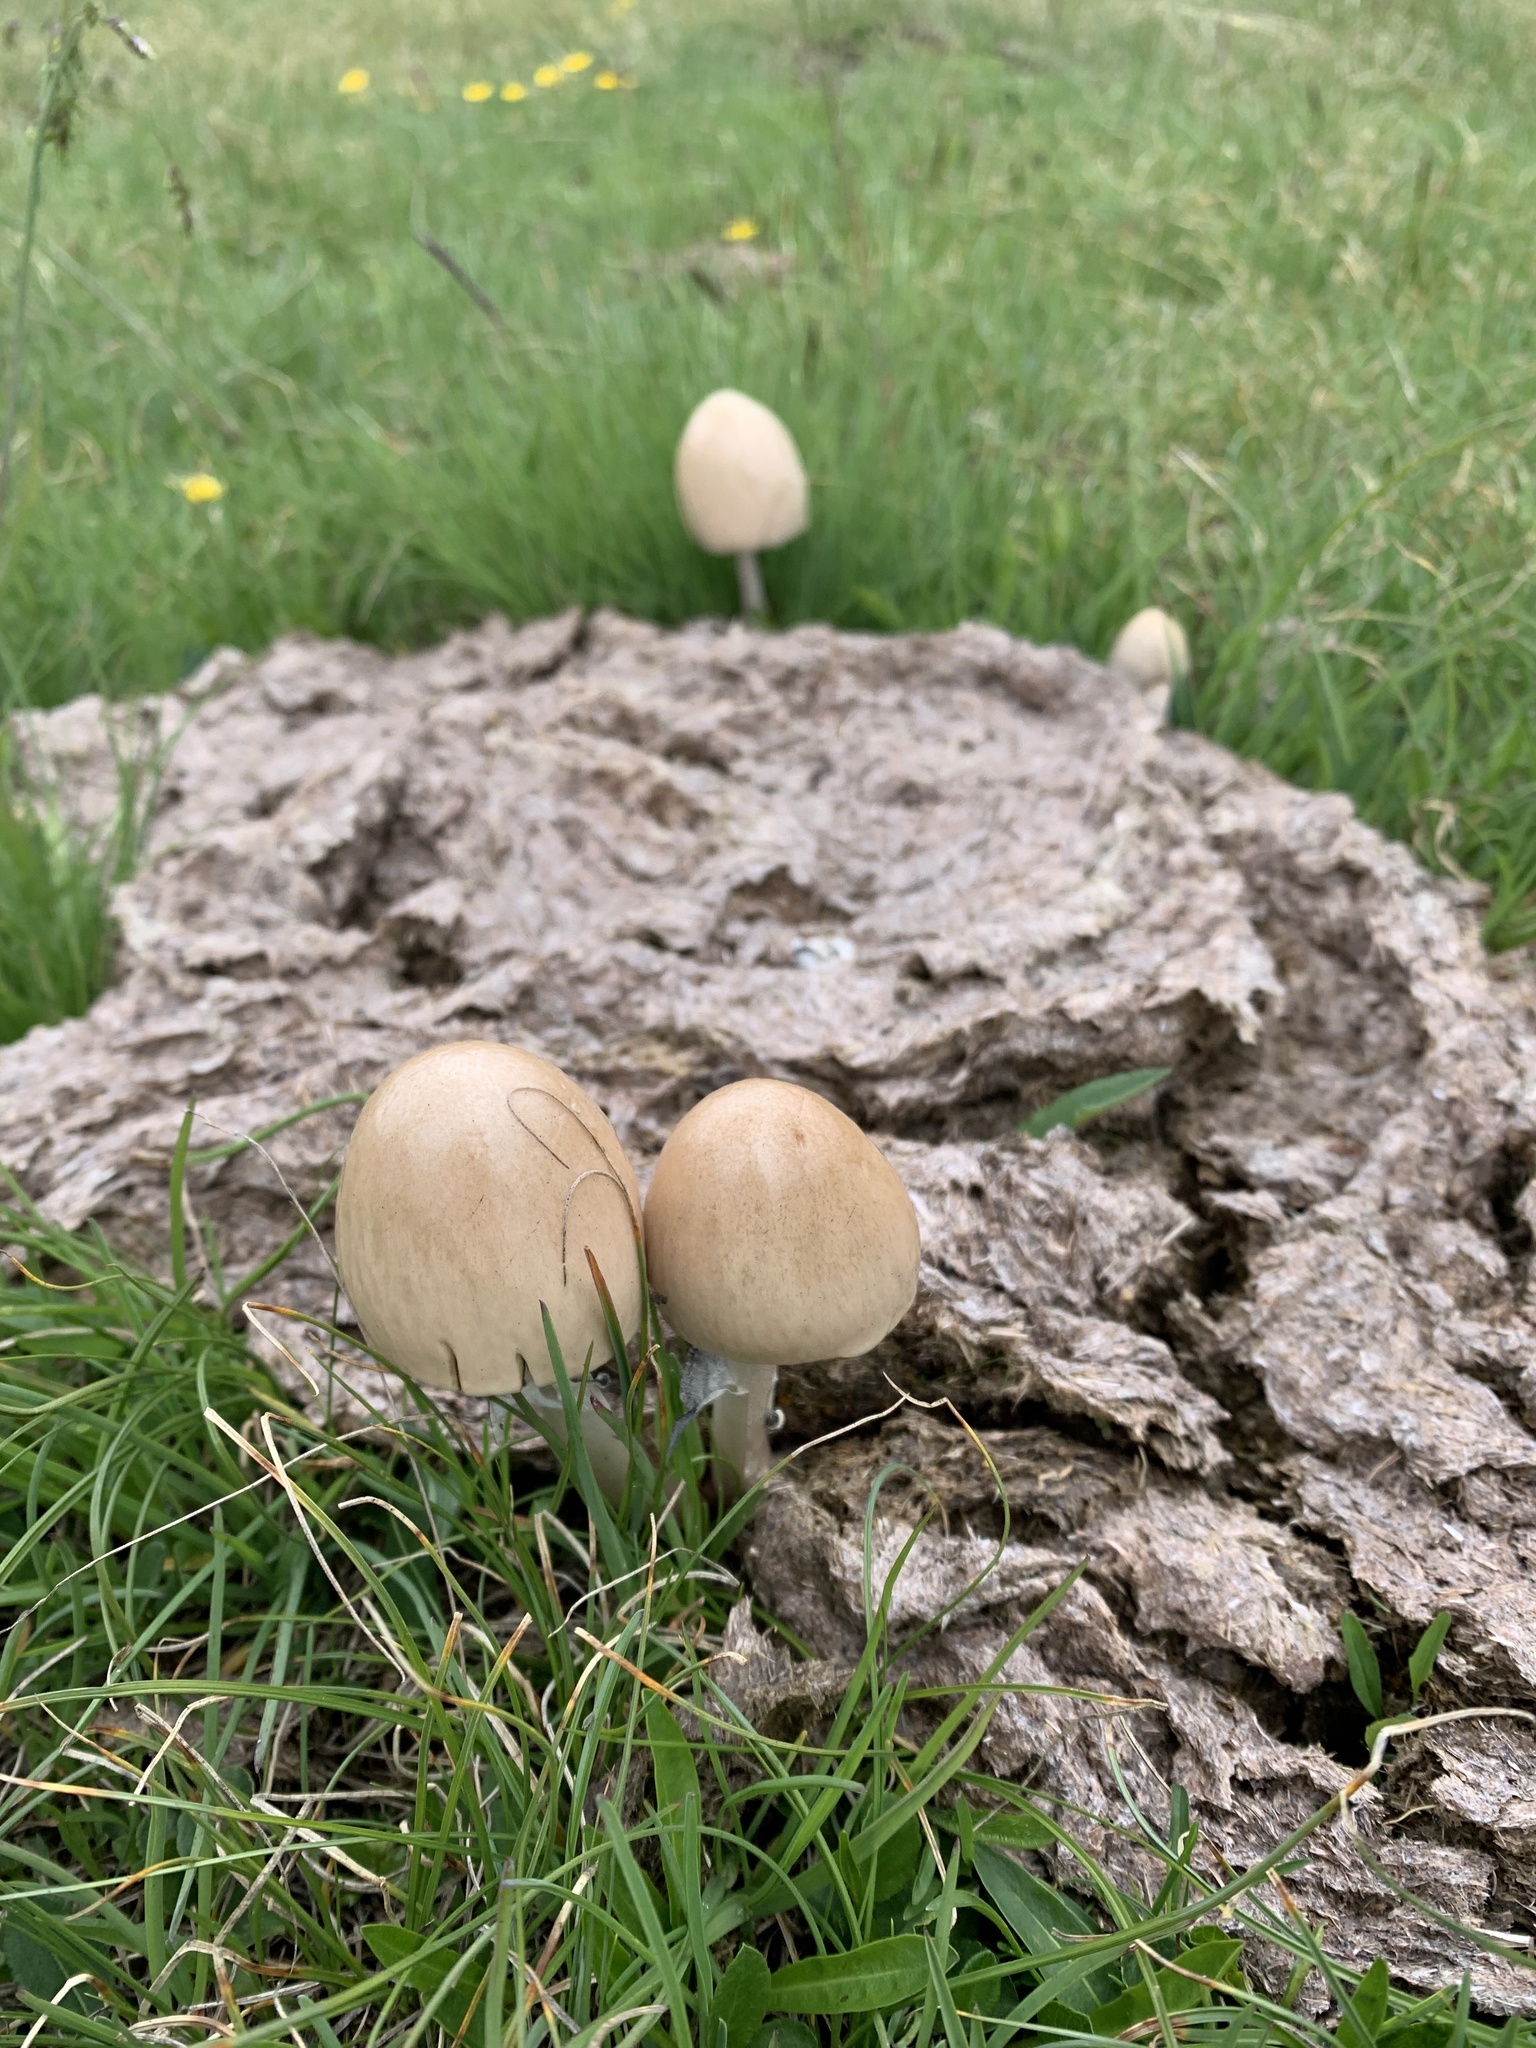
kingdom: Fungi
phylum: Basidiomycota
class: Agaricomycetes
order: Agaricales
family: Bolbitiaceae
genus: Panaeolus
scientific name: Panaeolus semiovatus
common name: Shiny mottlegill
